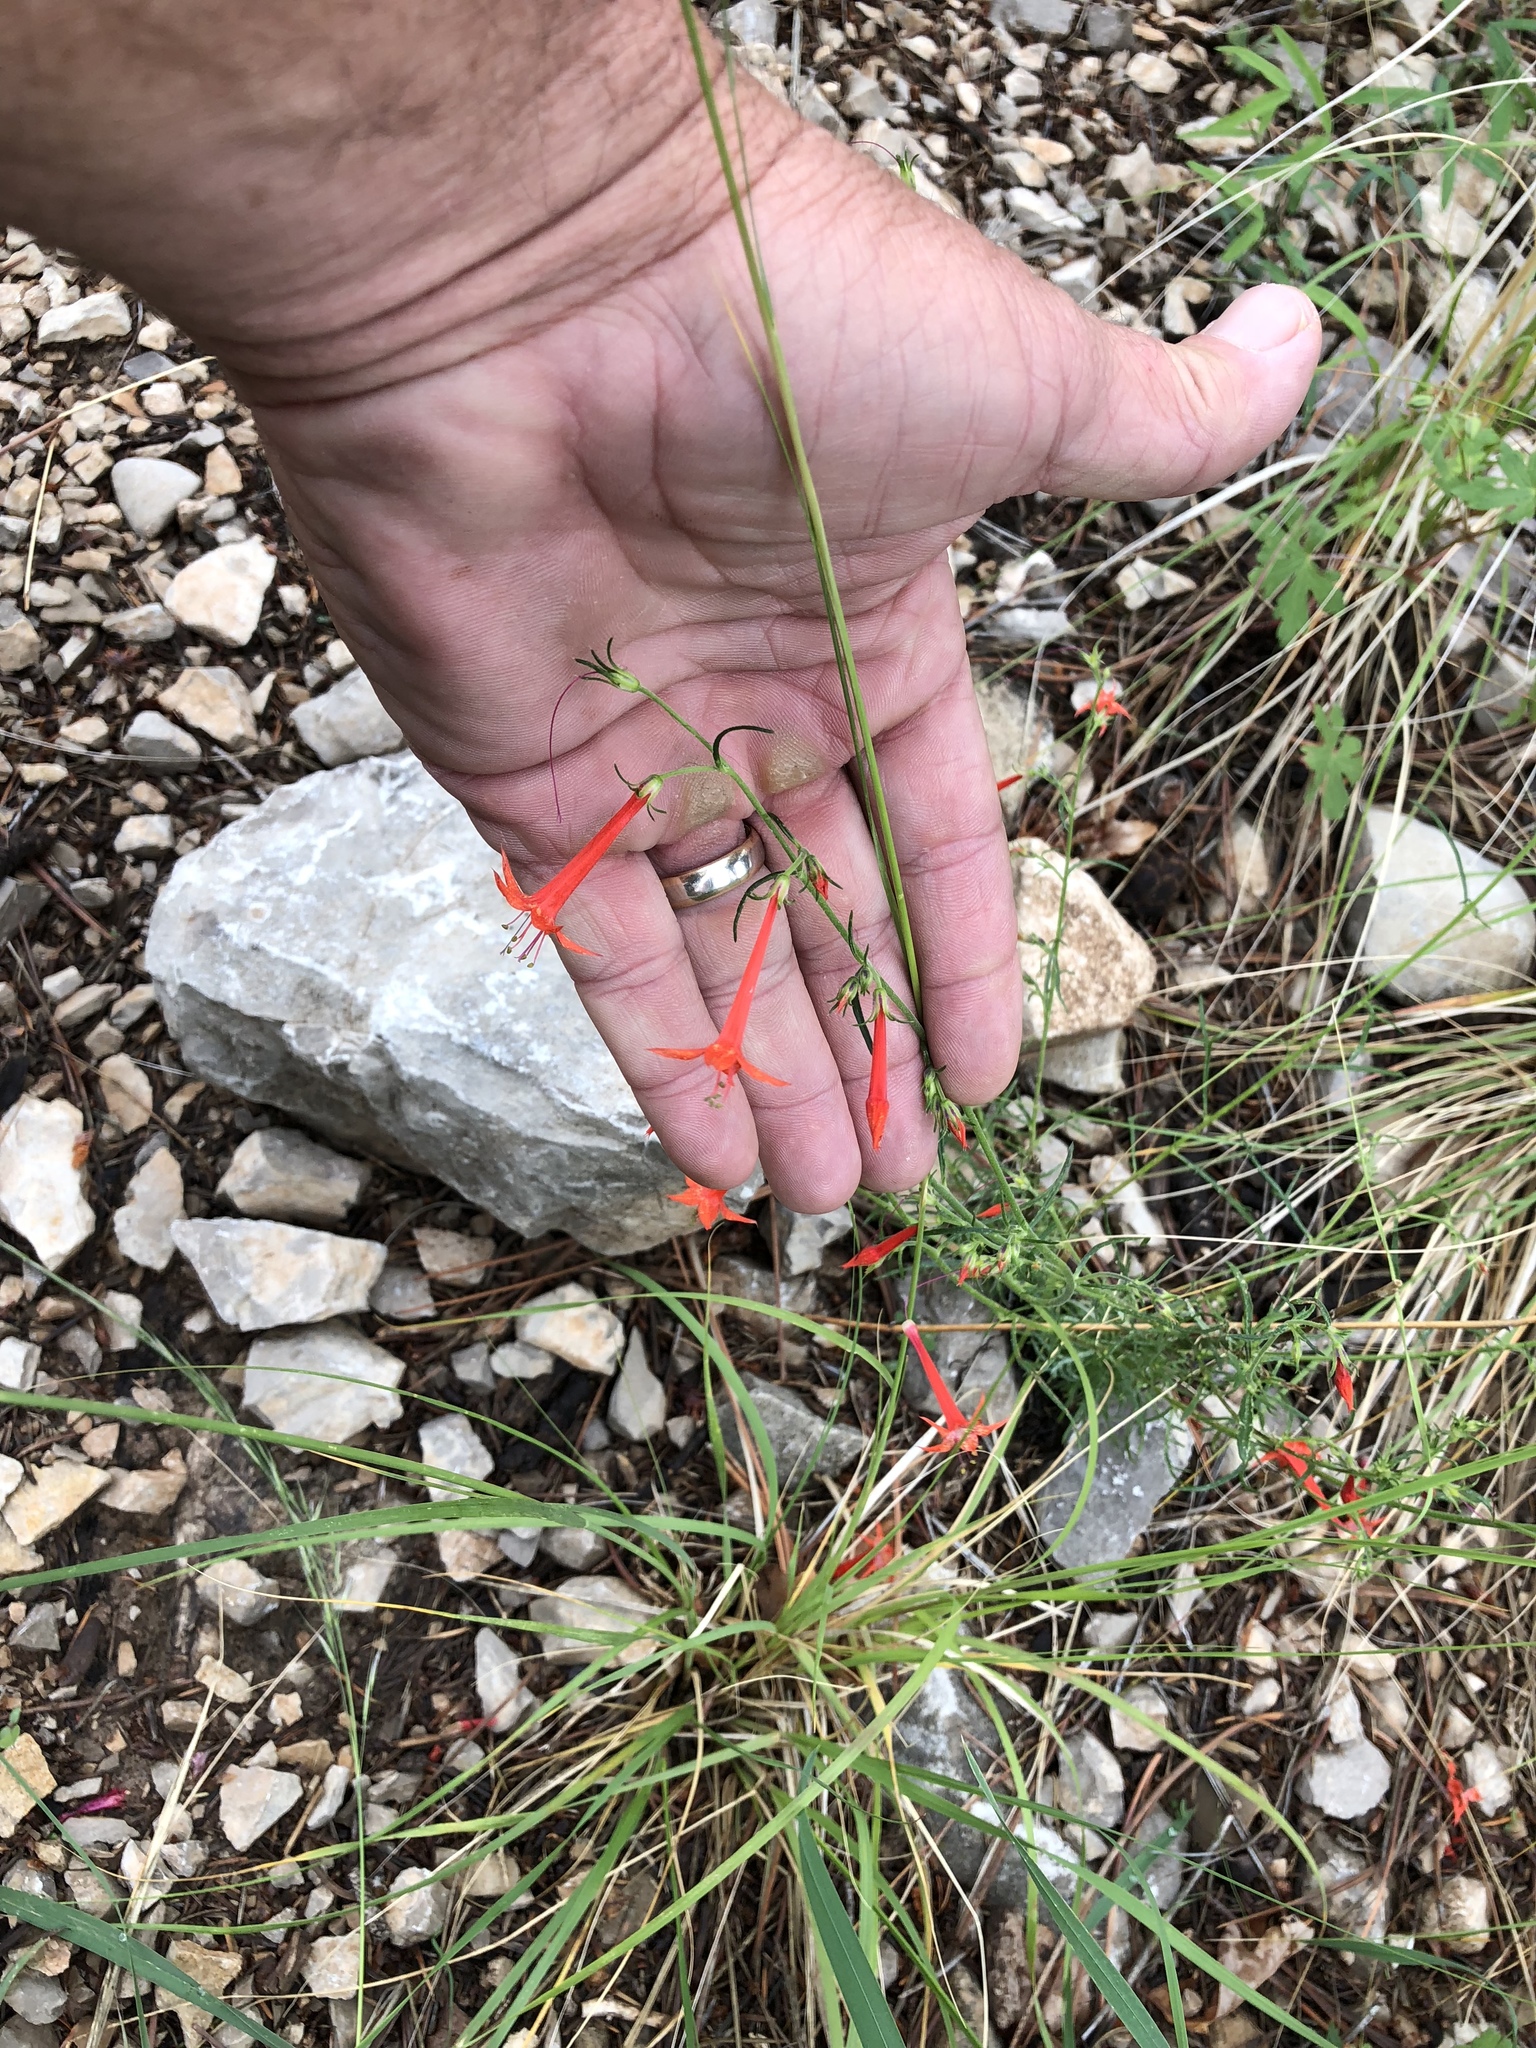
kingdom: Plantae
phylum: Tracheophyta
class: Magnoliopsida
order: Ericales
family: Polemoniaceae
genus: Ipomopsis
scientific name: Ipomopsis aggregata
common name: Scarlet gilia
